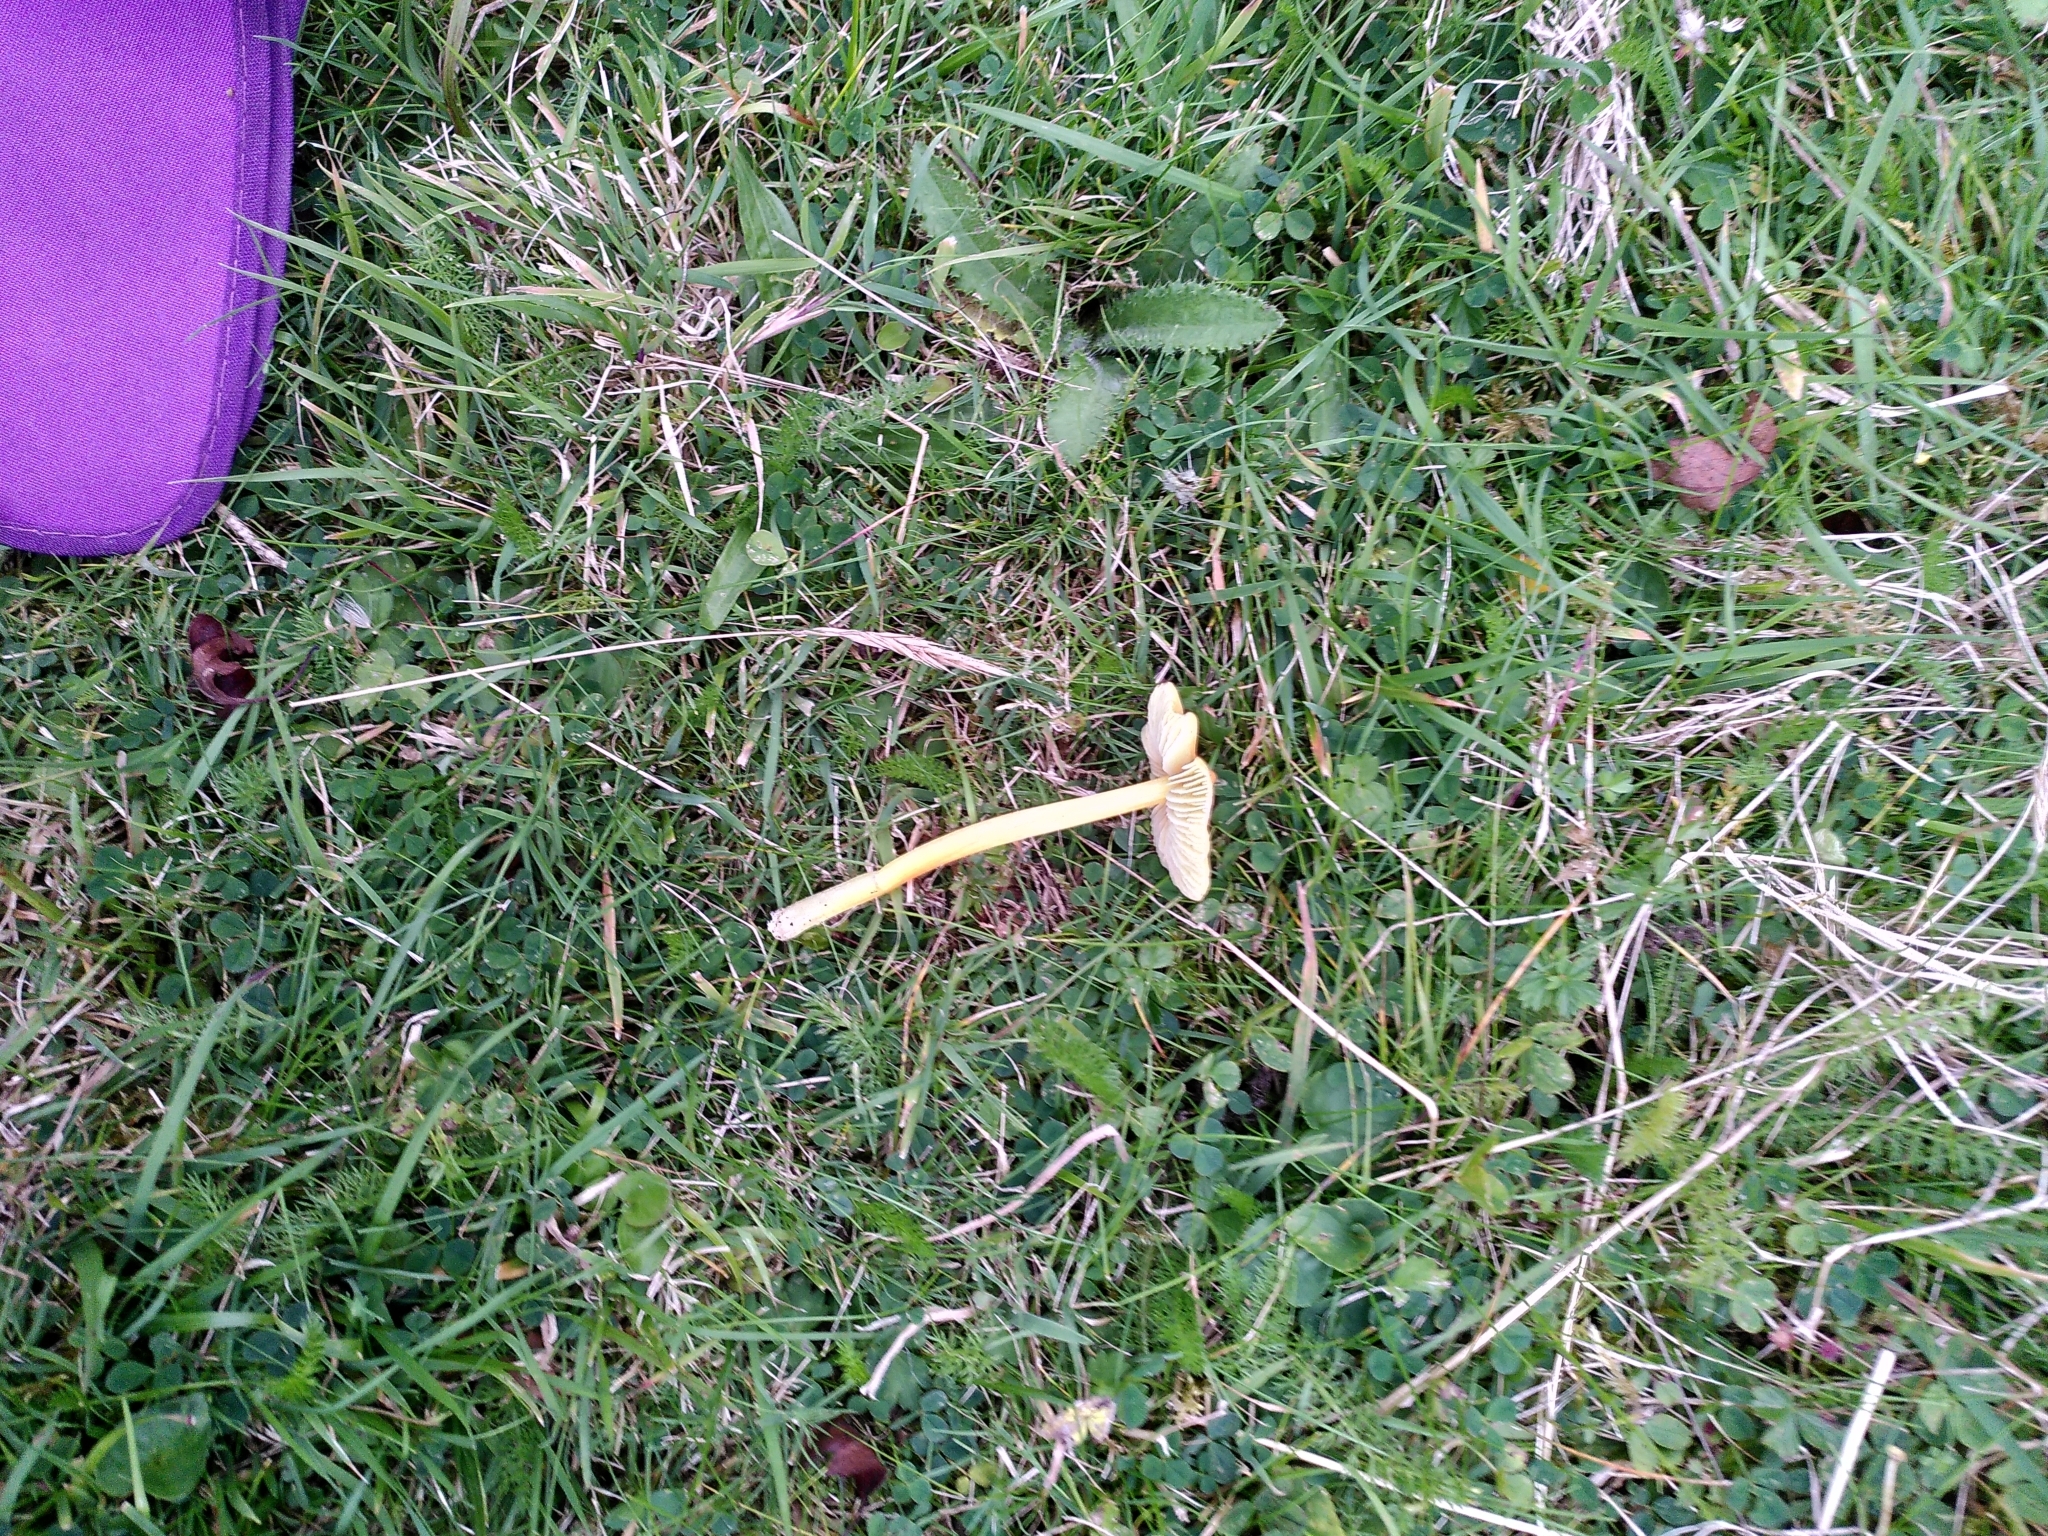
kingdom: Fungi
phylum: Basidiomycota
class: Agaricomycetes
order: Agaricales
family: Hygrophoraceae
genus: Hygrocybe
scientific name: Hygrocybe acutoconica
